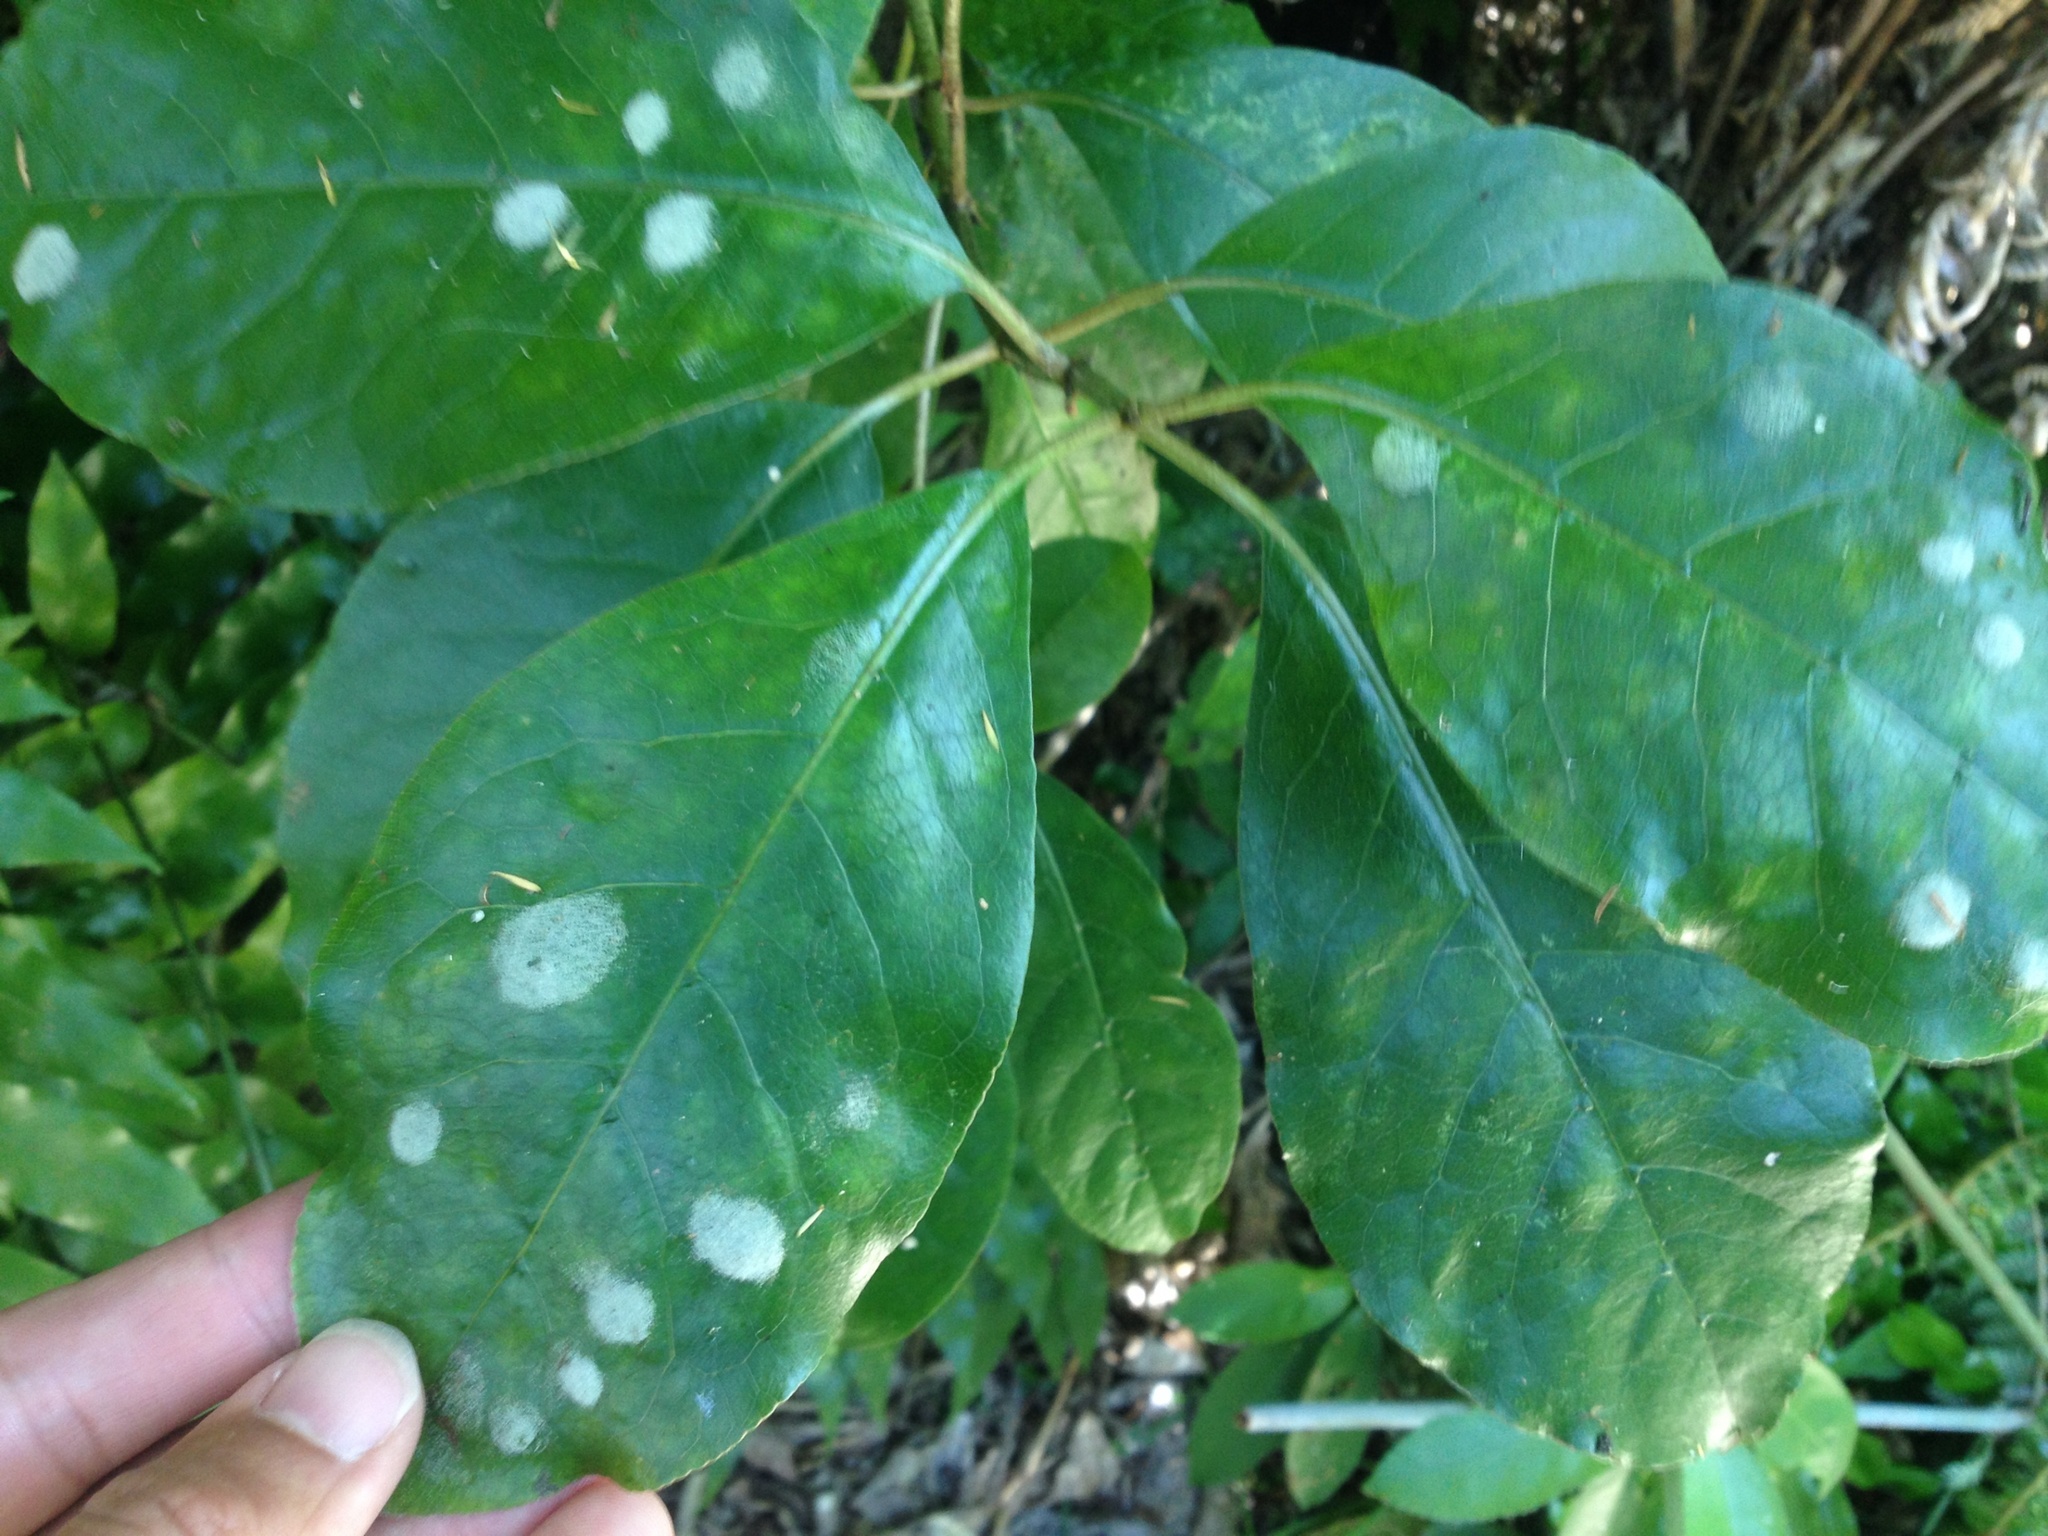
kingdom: Animalia
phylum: Arthropoda
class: Arachnida
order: Trombidiformes
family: Eriophyidae
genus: Phyllocoptes
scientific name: Phyllocoptes coprosmae
